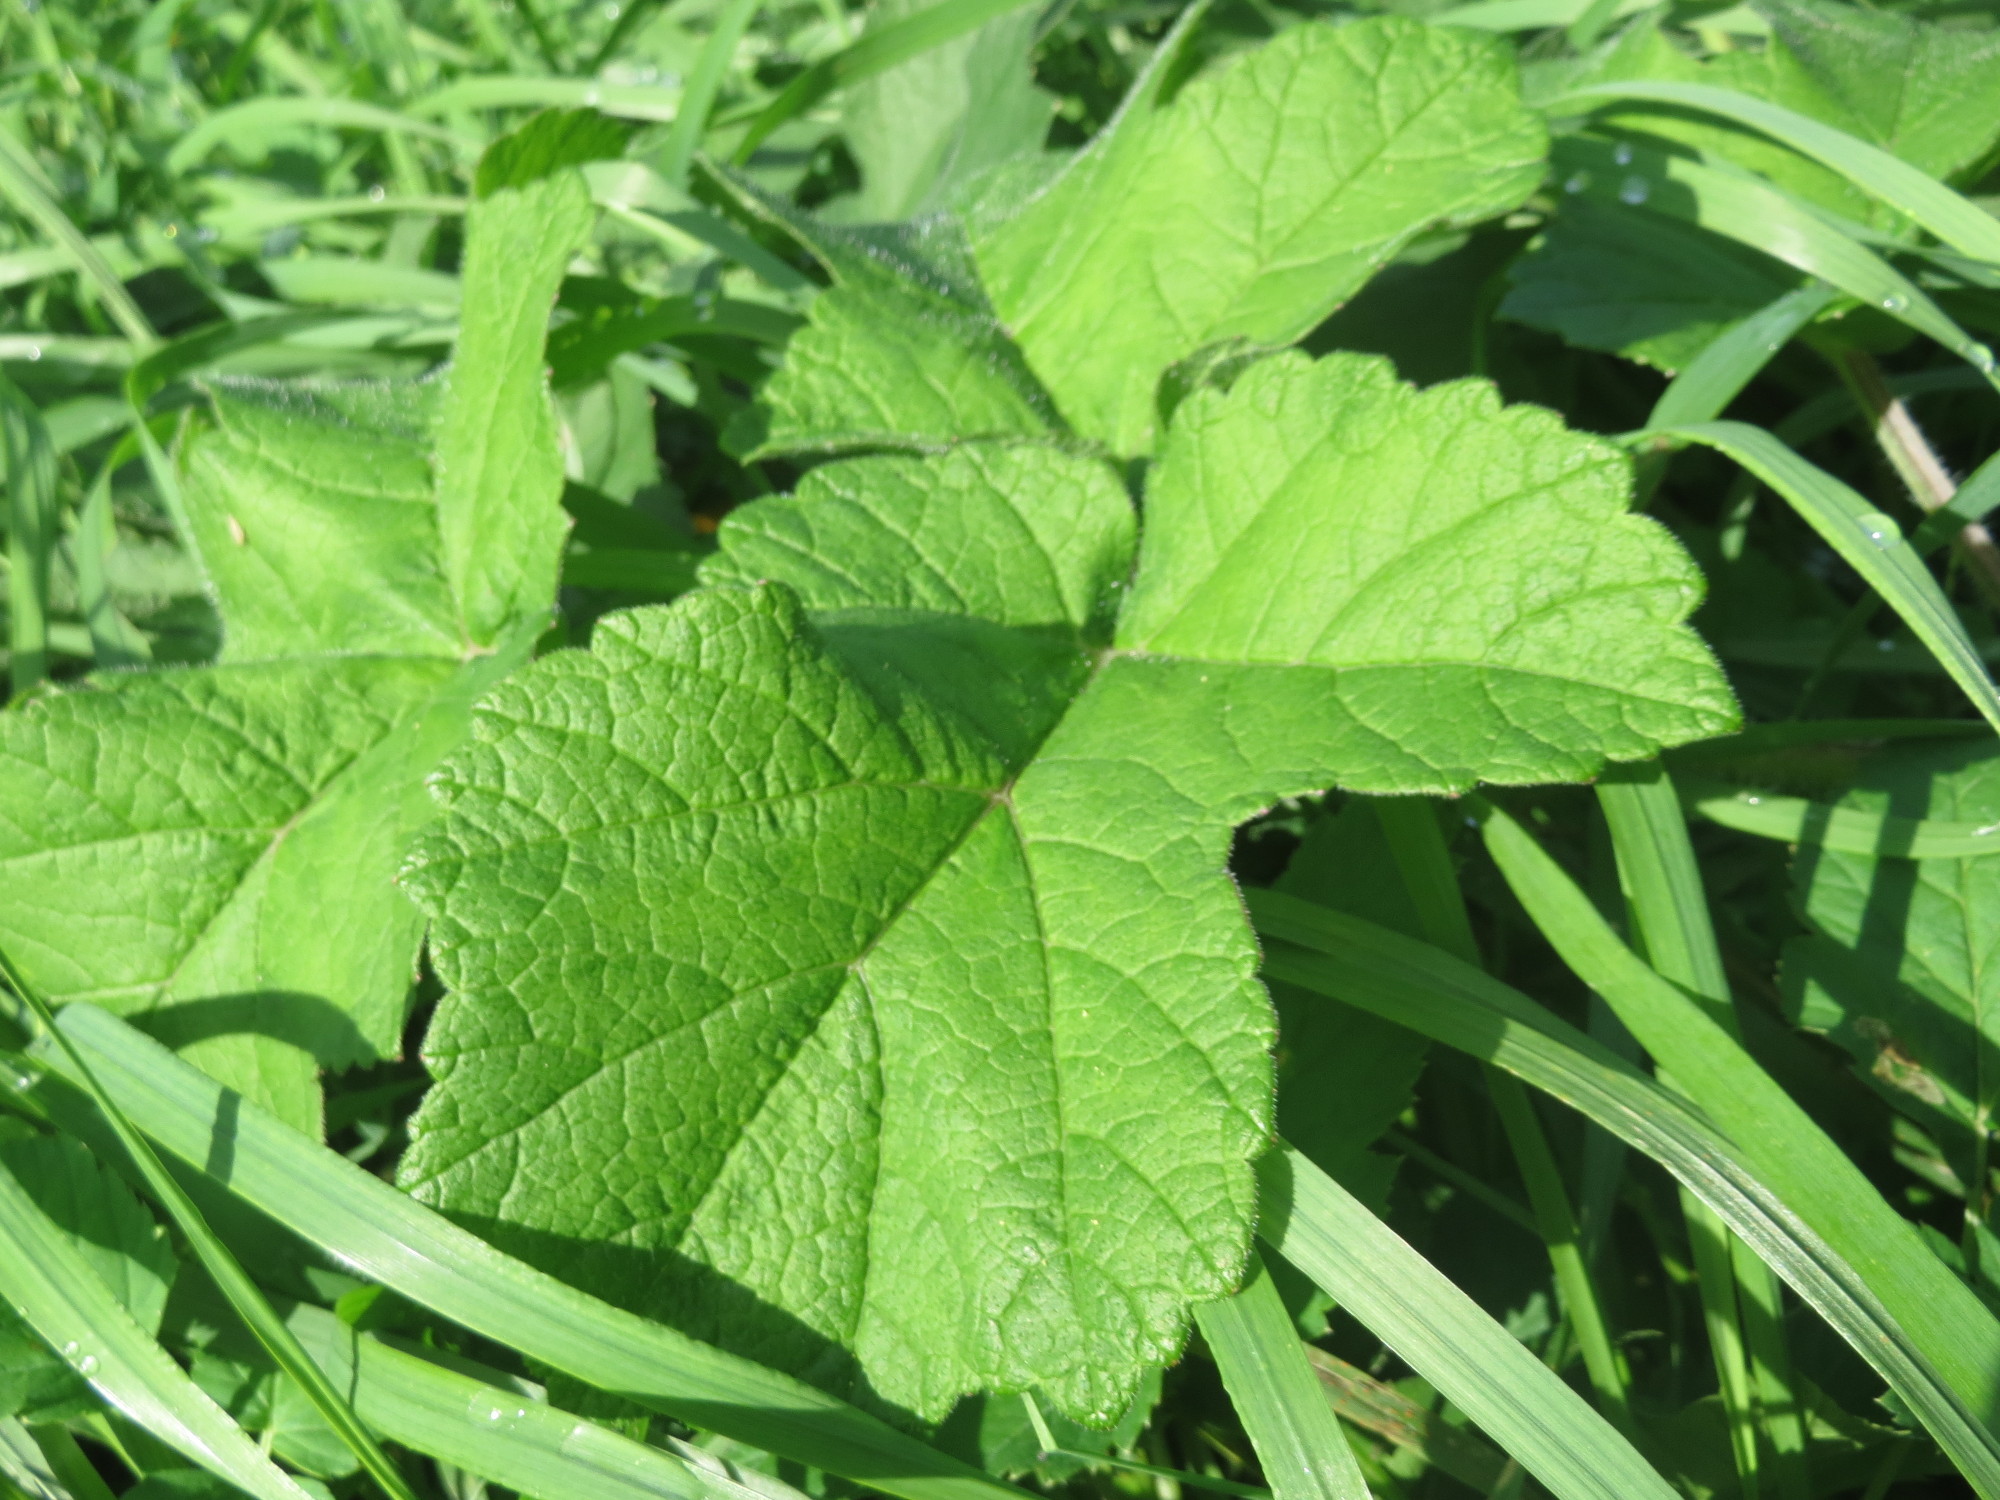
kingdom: Plantae
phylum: Tracheophyta
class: Magnoliopsida
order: Apiales
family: Apiaceae
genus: Heracleum
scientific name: Heracleum sphondylium
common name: Hogweed
